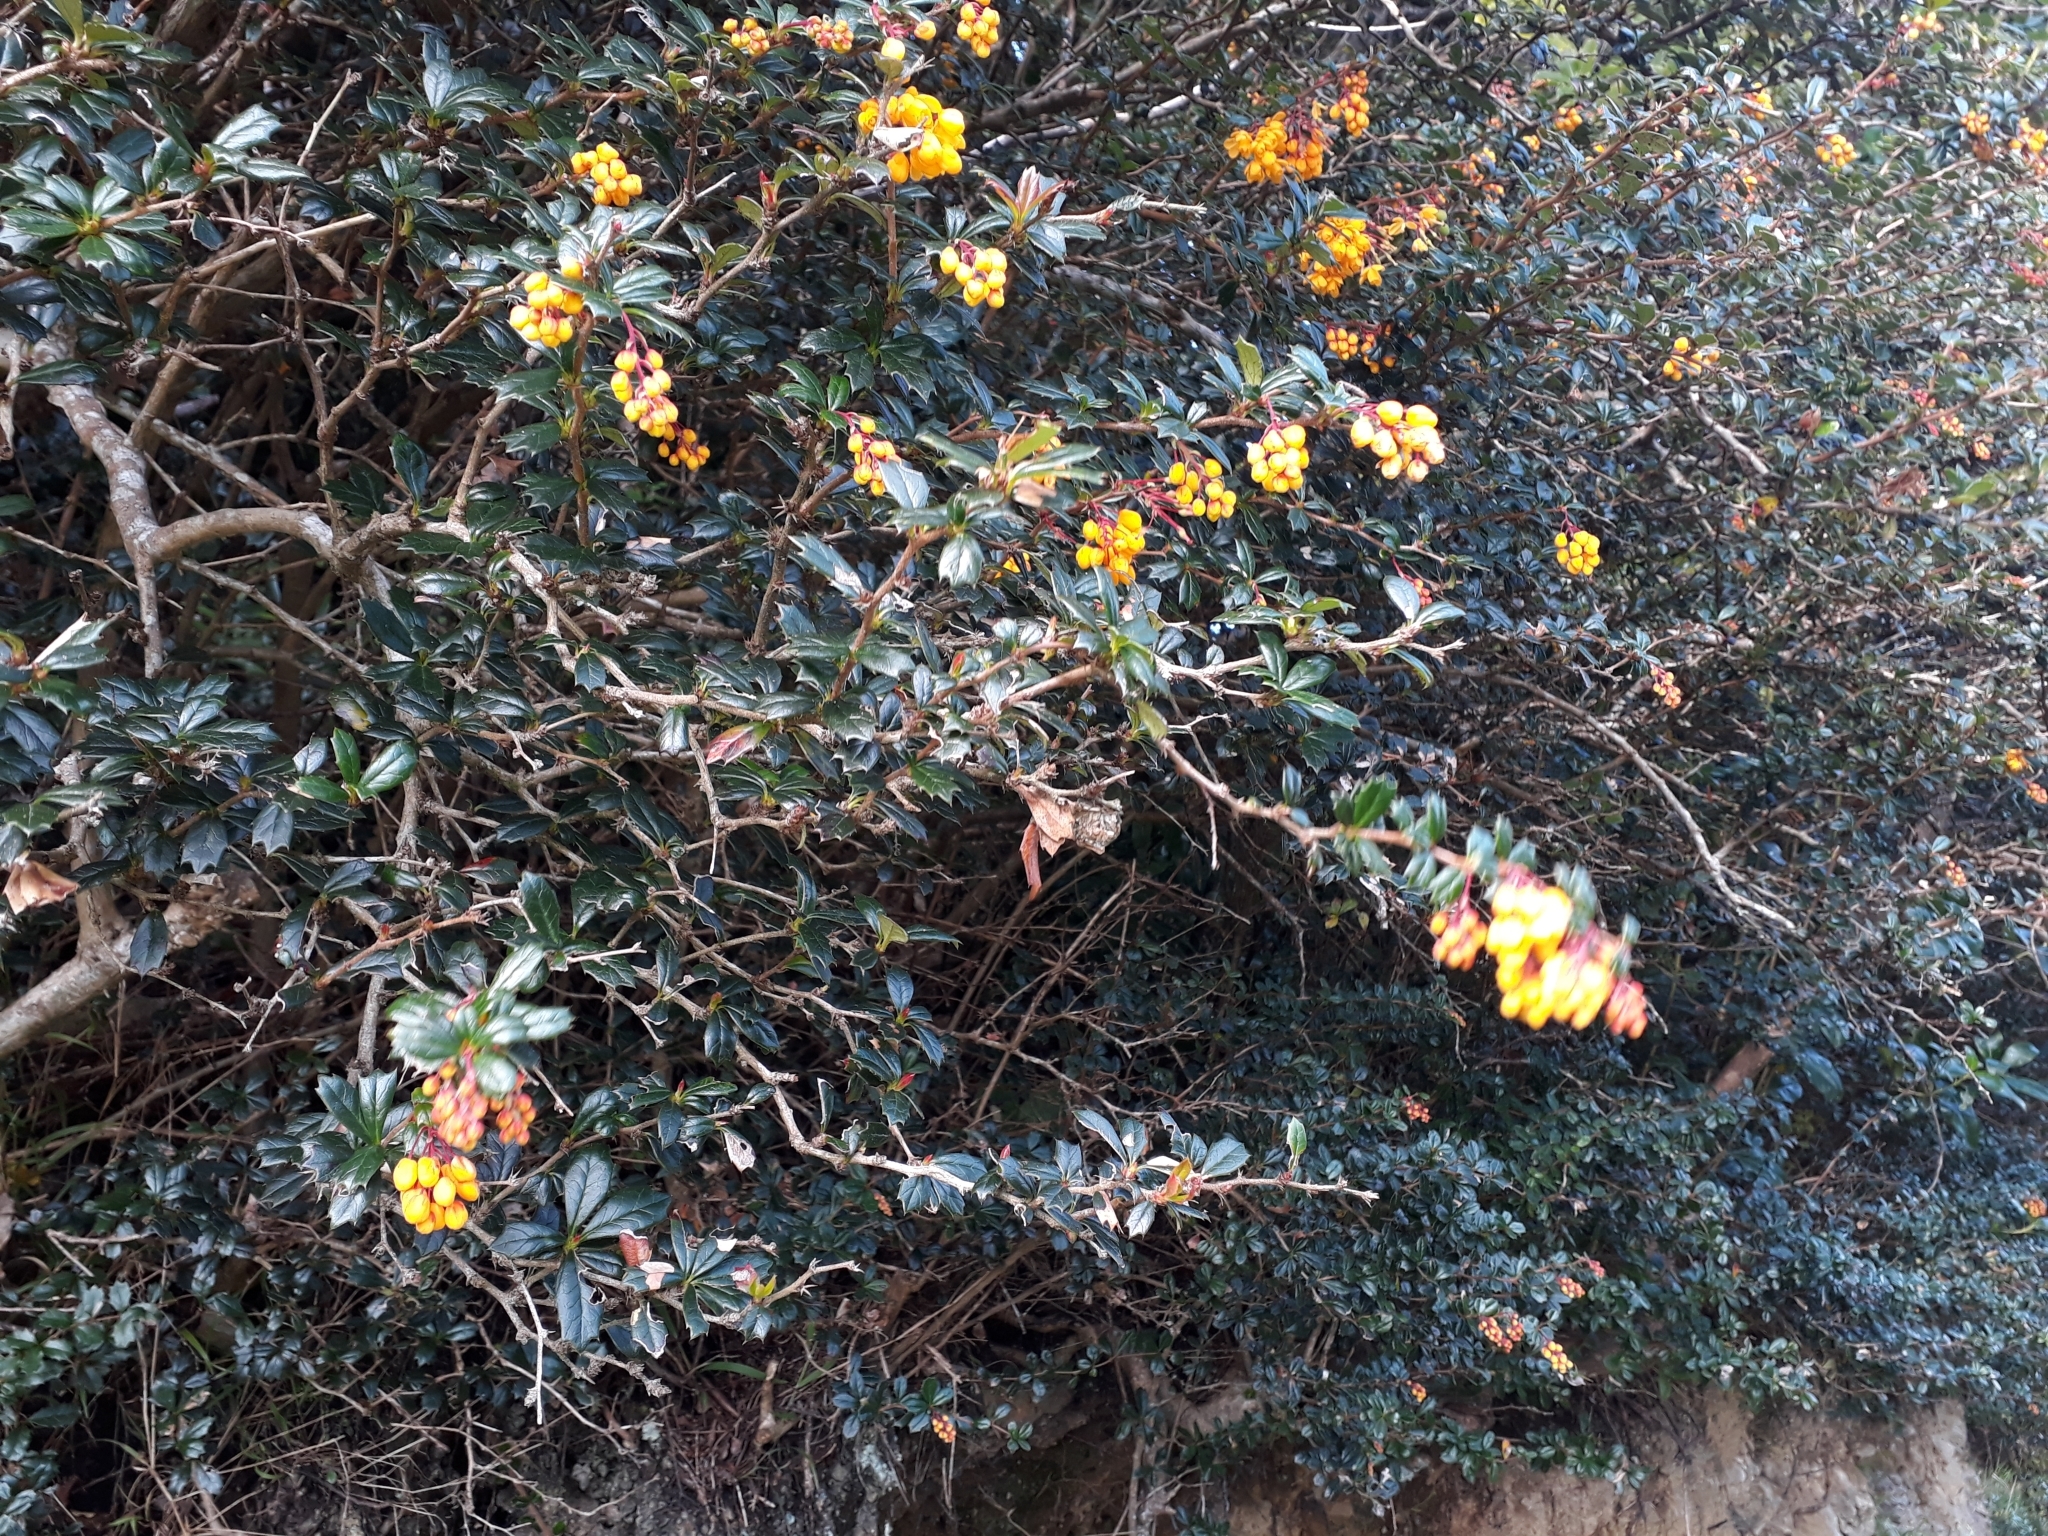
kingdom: Plantae
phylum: Tracheophyta
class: Magnoliopsida
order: Ranunculales
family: Berberidaceae
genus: Berberis
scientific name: Berberis darwinii
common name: Darwin's barberry
